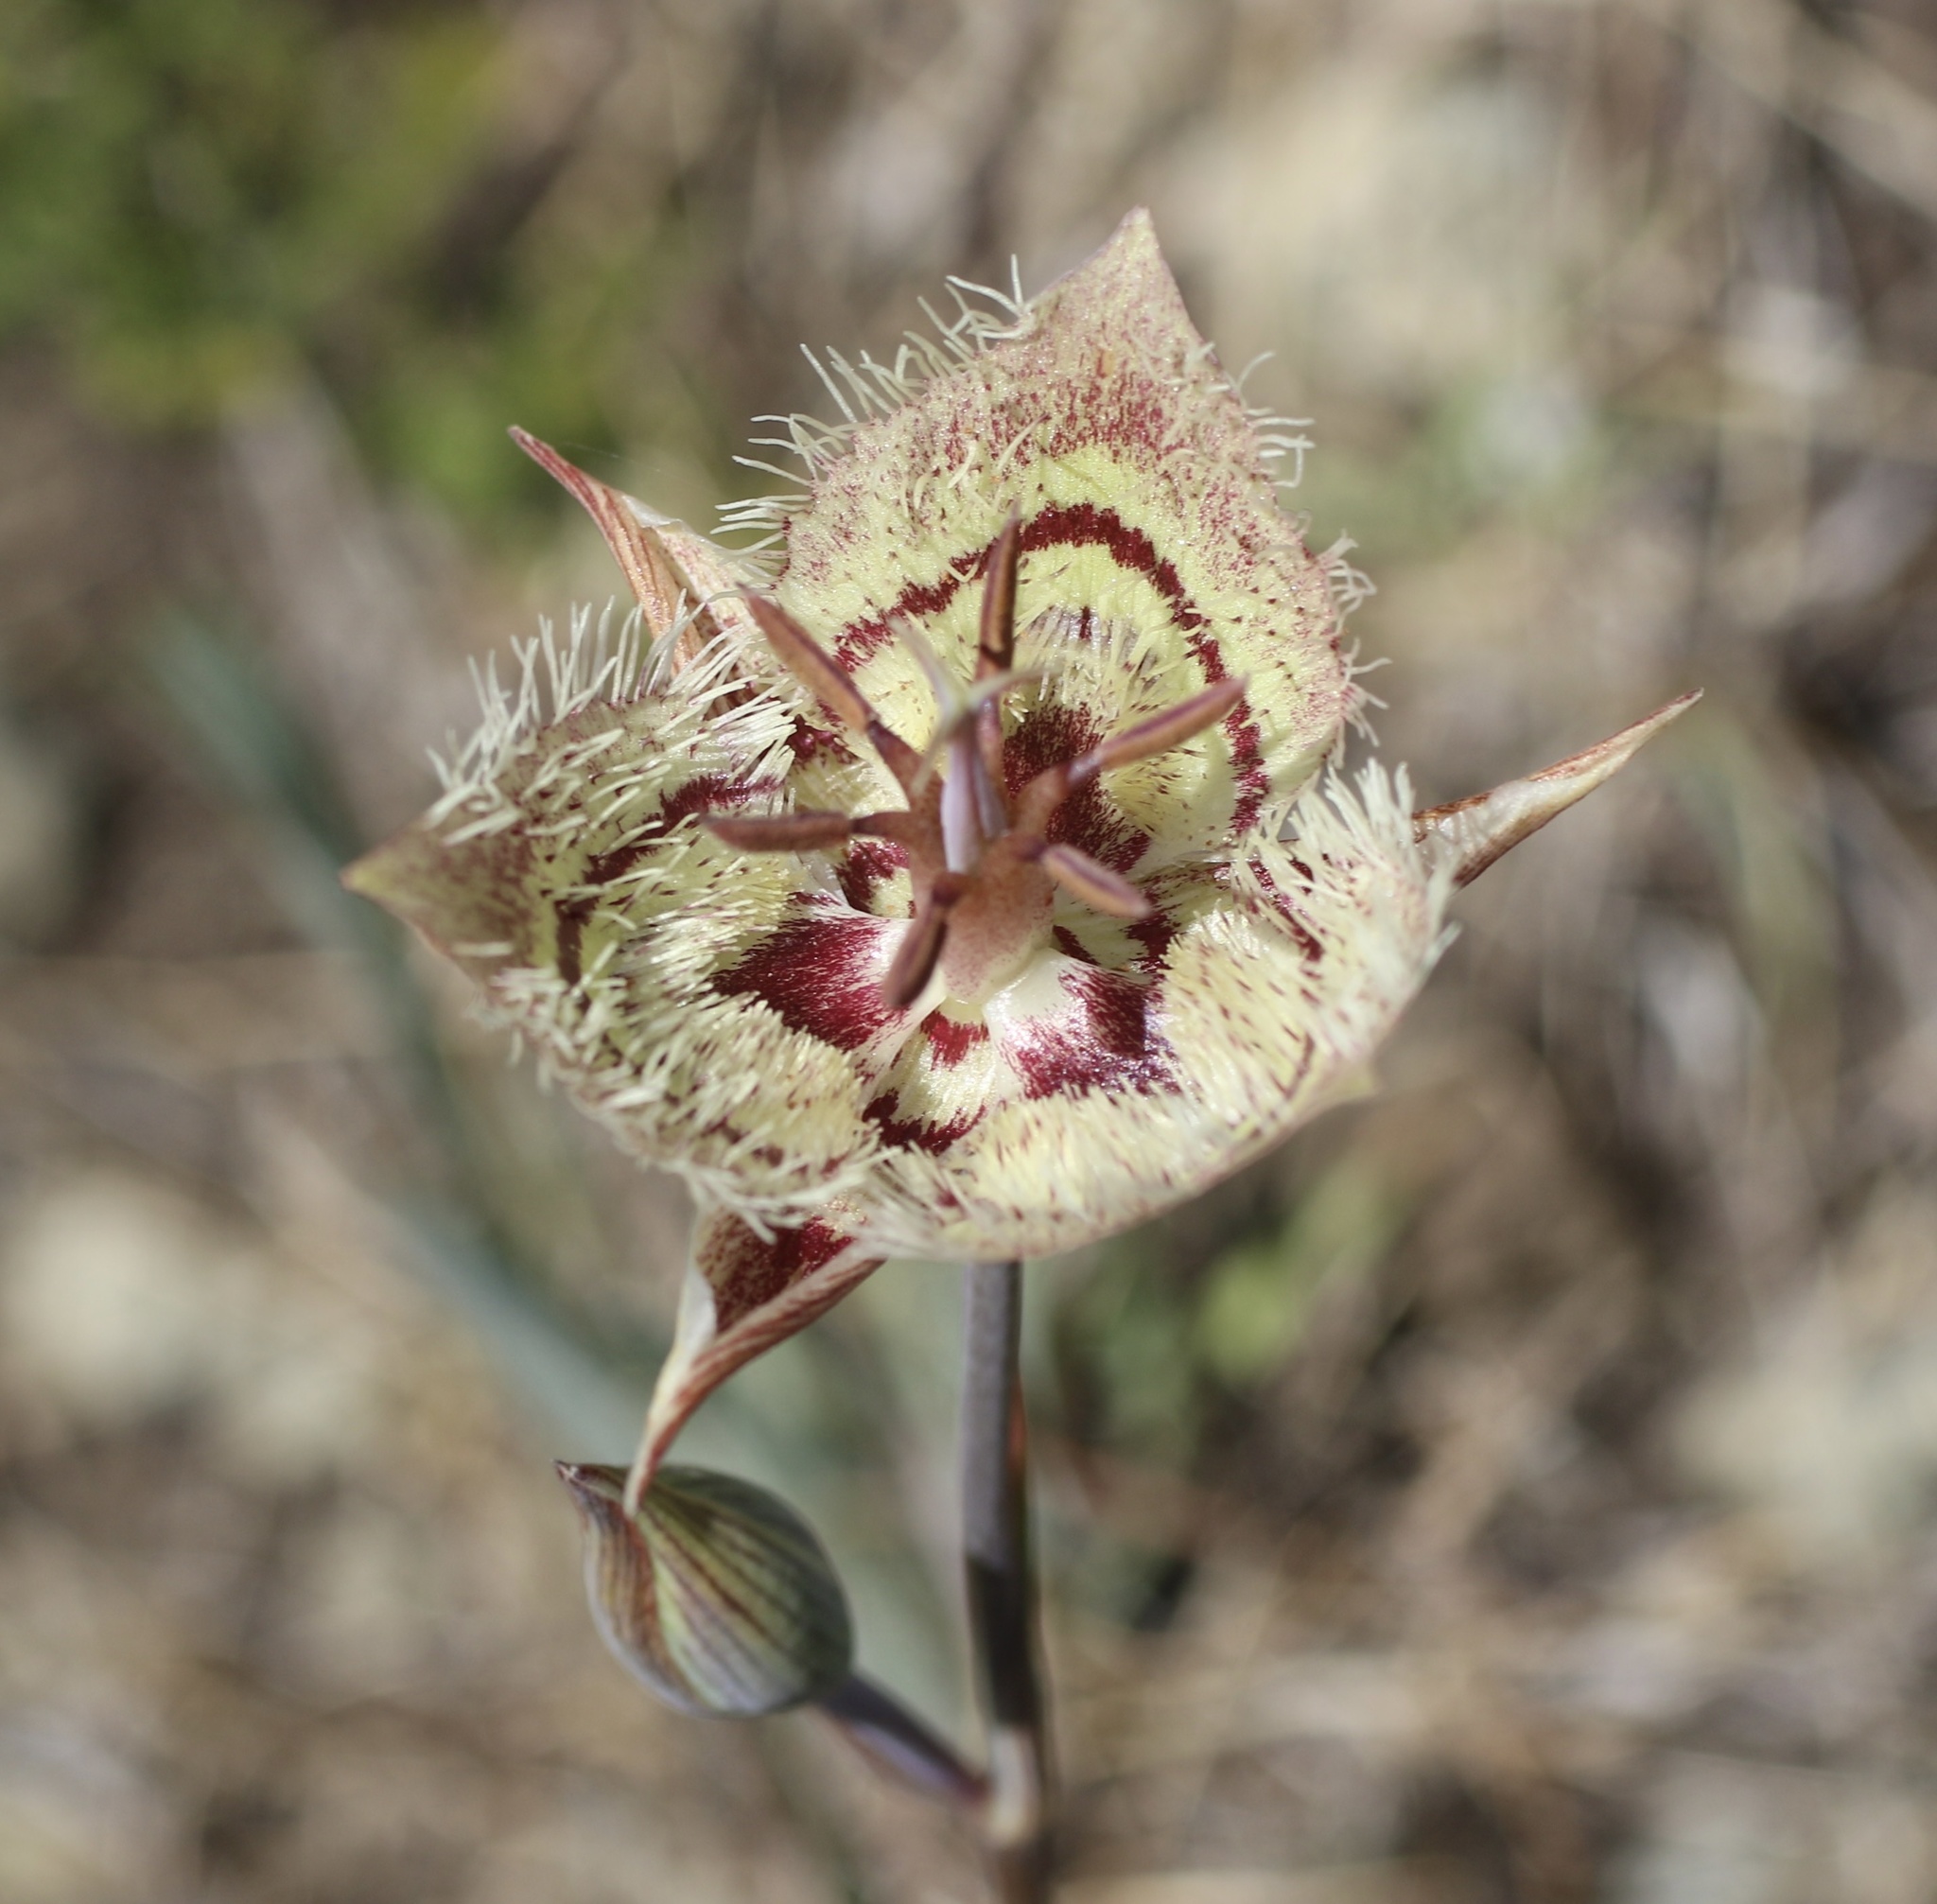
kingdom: Plantae
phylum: Tracheophyta
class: Liliopsida
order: Liliales
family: Liliaceae
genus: Calochortus
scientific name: Calochortus tiburonensis
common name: Tiburon mariposa-lily
